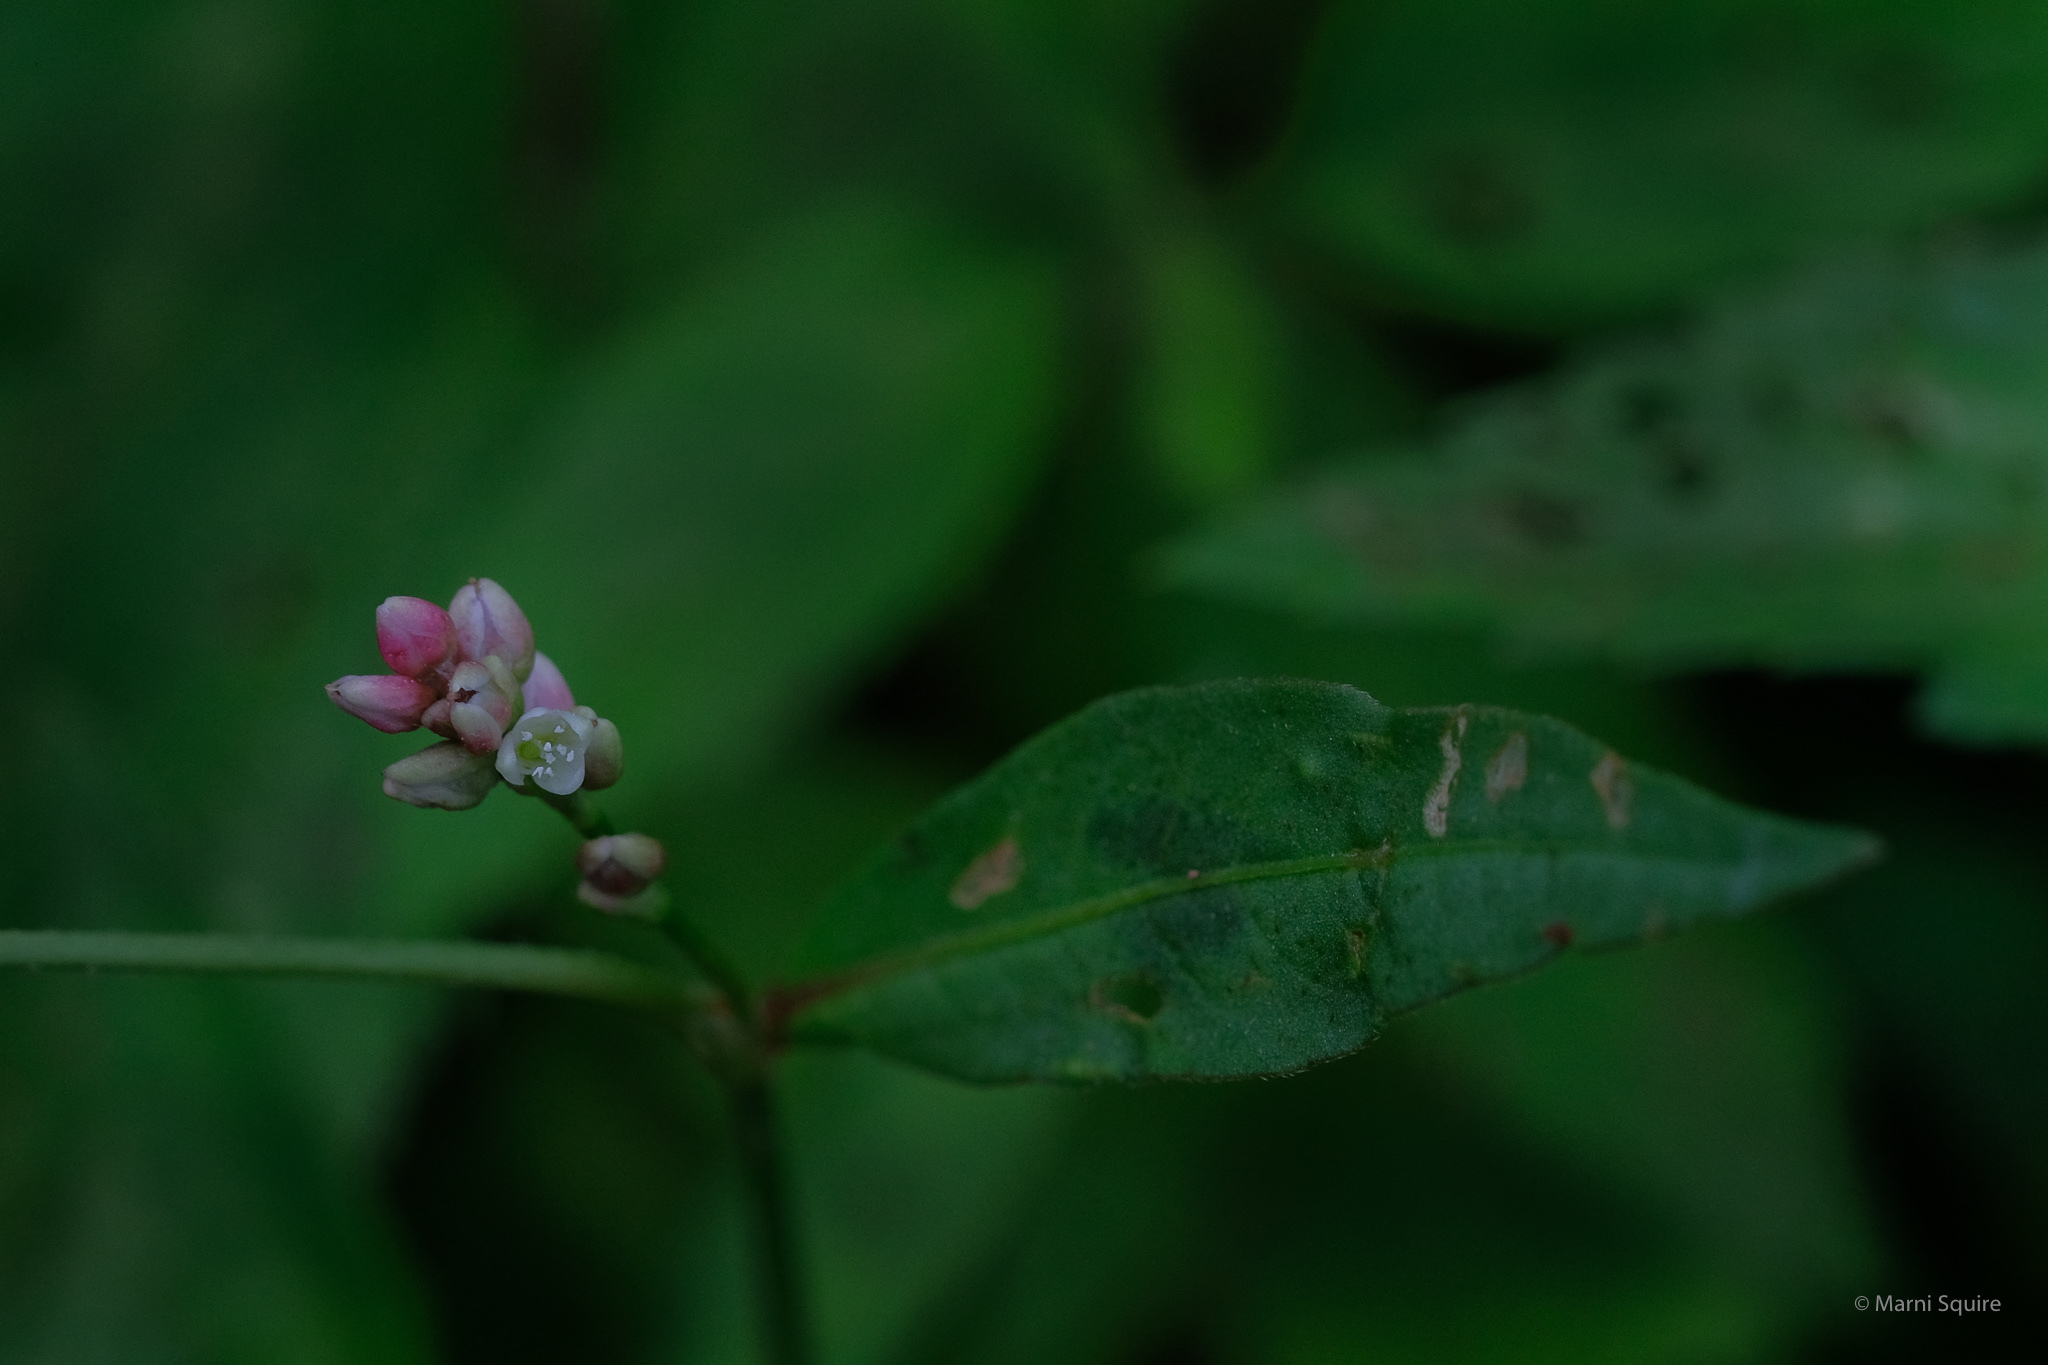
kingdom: Plantae
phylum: Tracheophyta
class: Magnoliopsida
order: Caryophyllales
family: Polygonaceae
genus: Persicaria
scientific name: Persicaria maculosa
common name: Redshank
